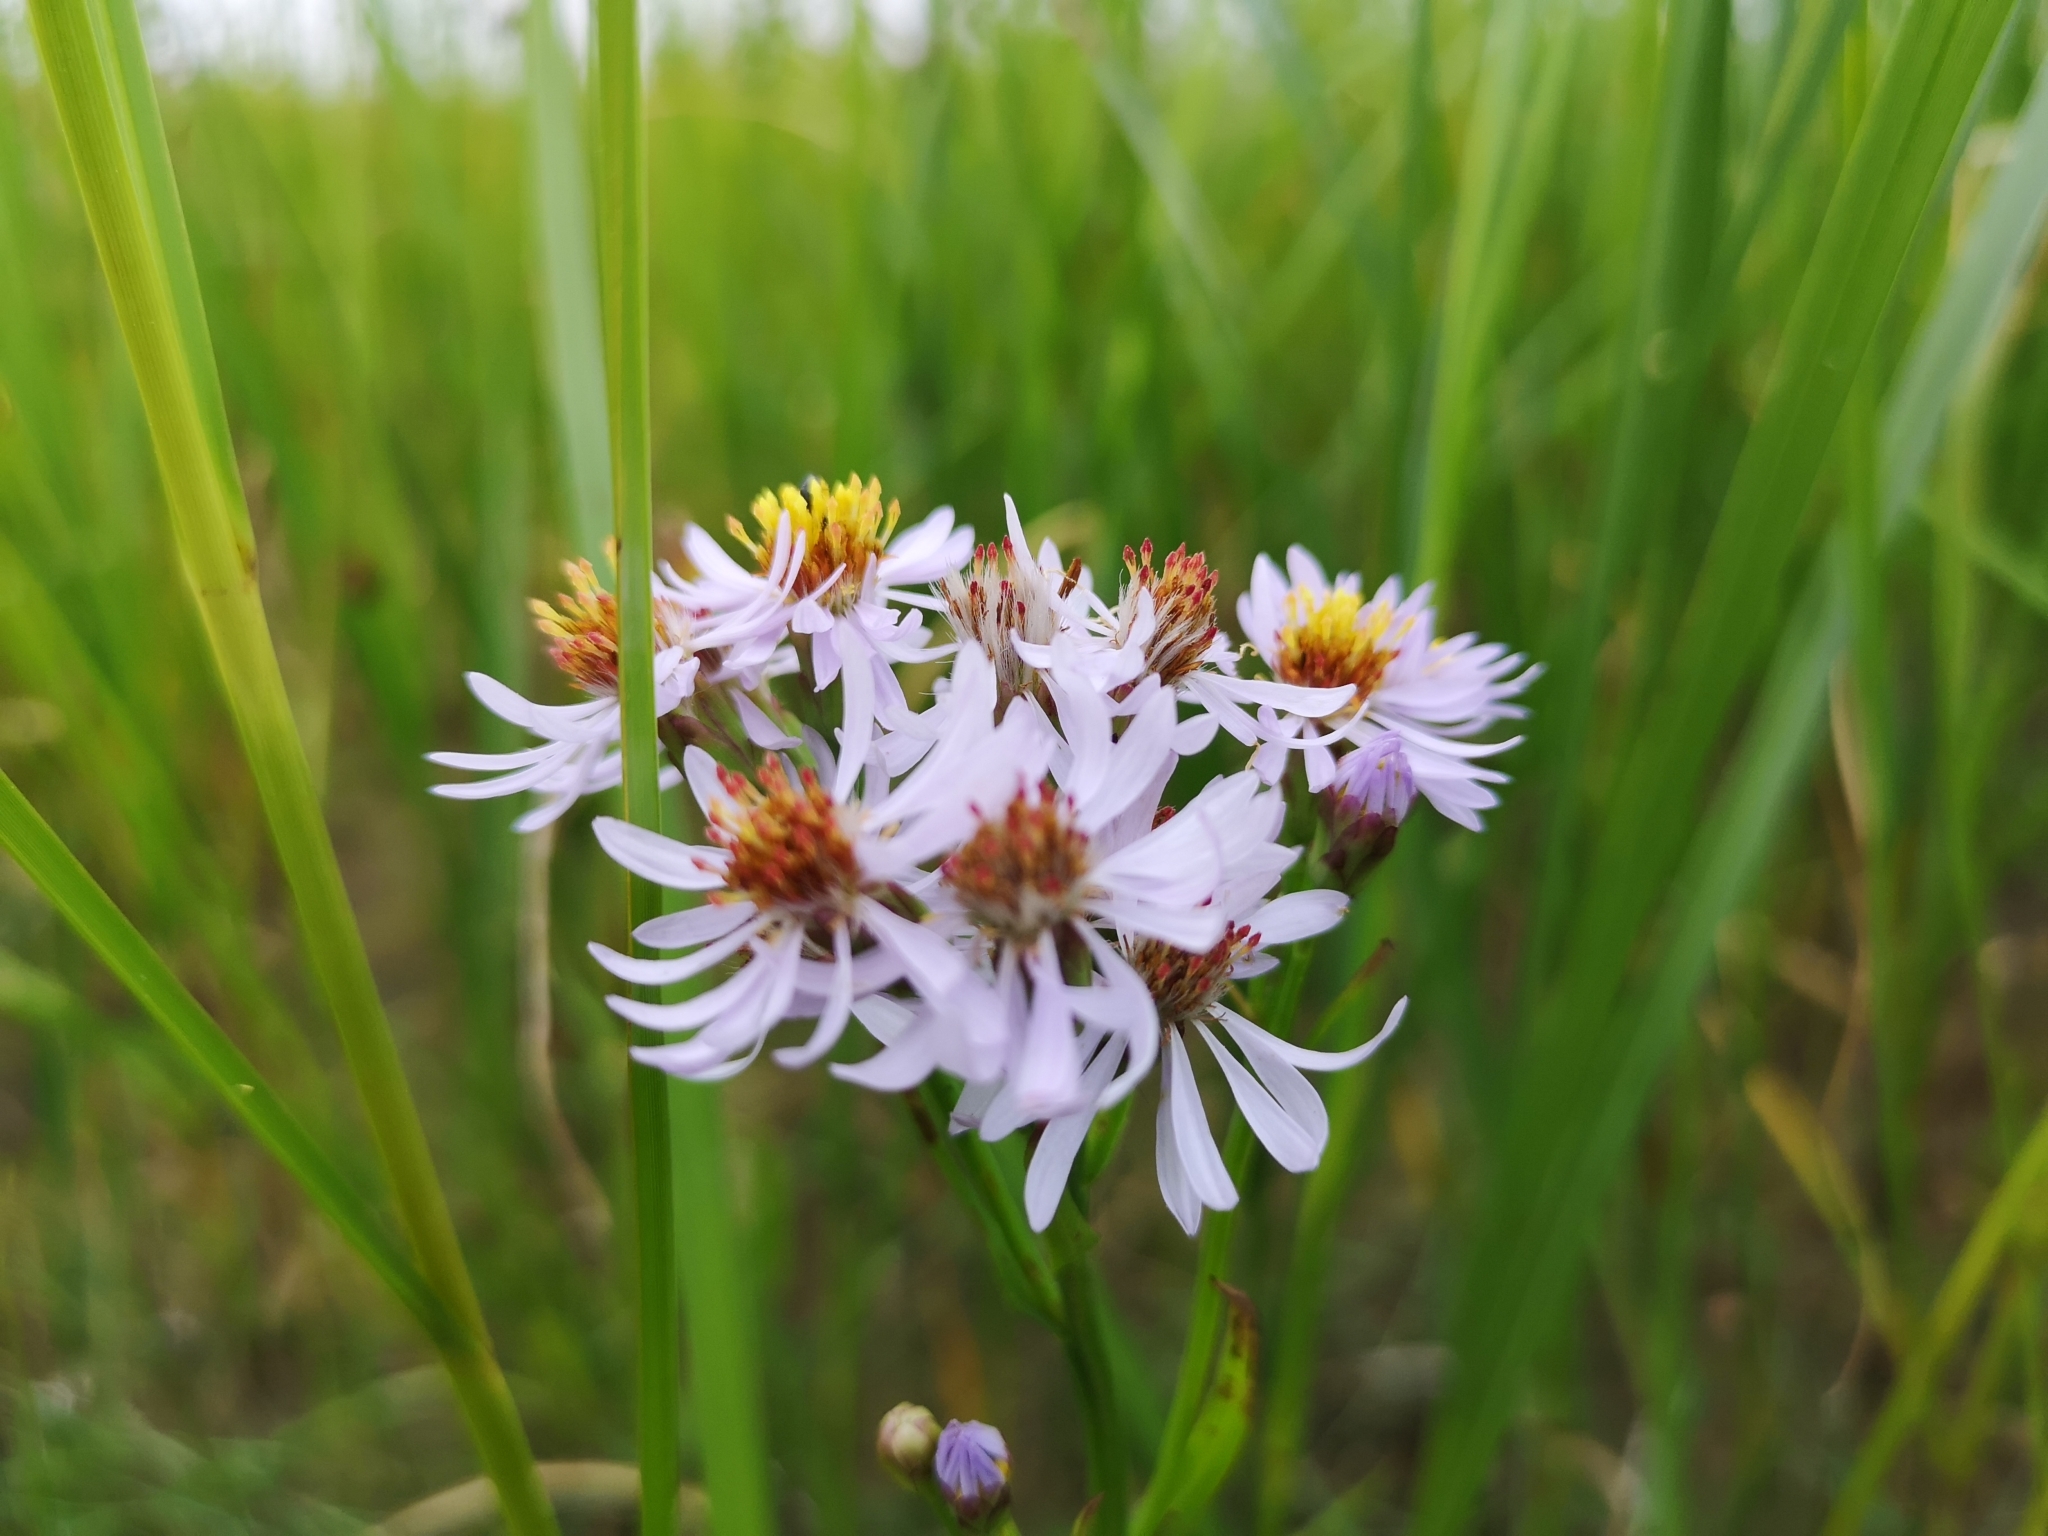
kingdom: Plantae
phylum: Tracheophyta
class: Magnoliopsida
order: Asterales
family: Asteraceae
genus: Tripolium
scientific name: Tripolium pannonicum
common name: Sea aster
